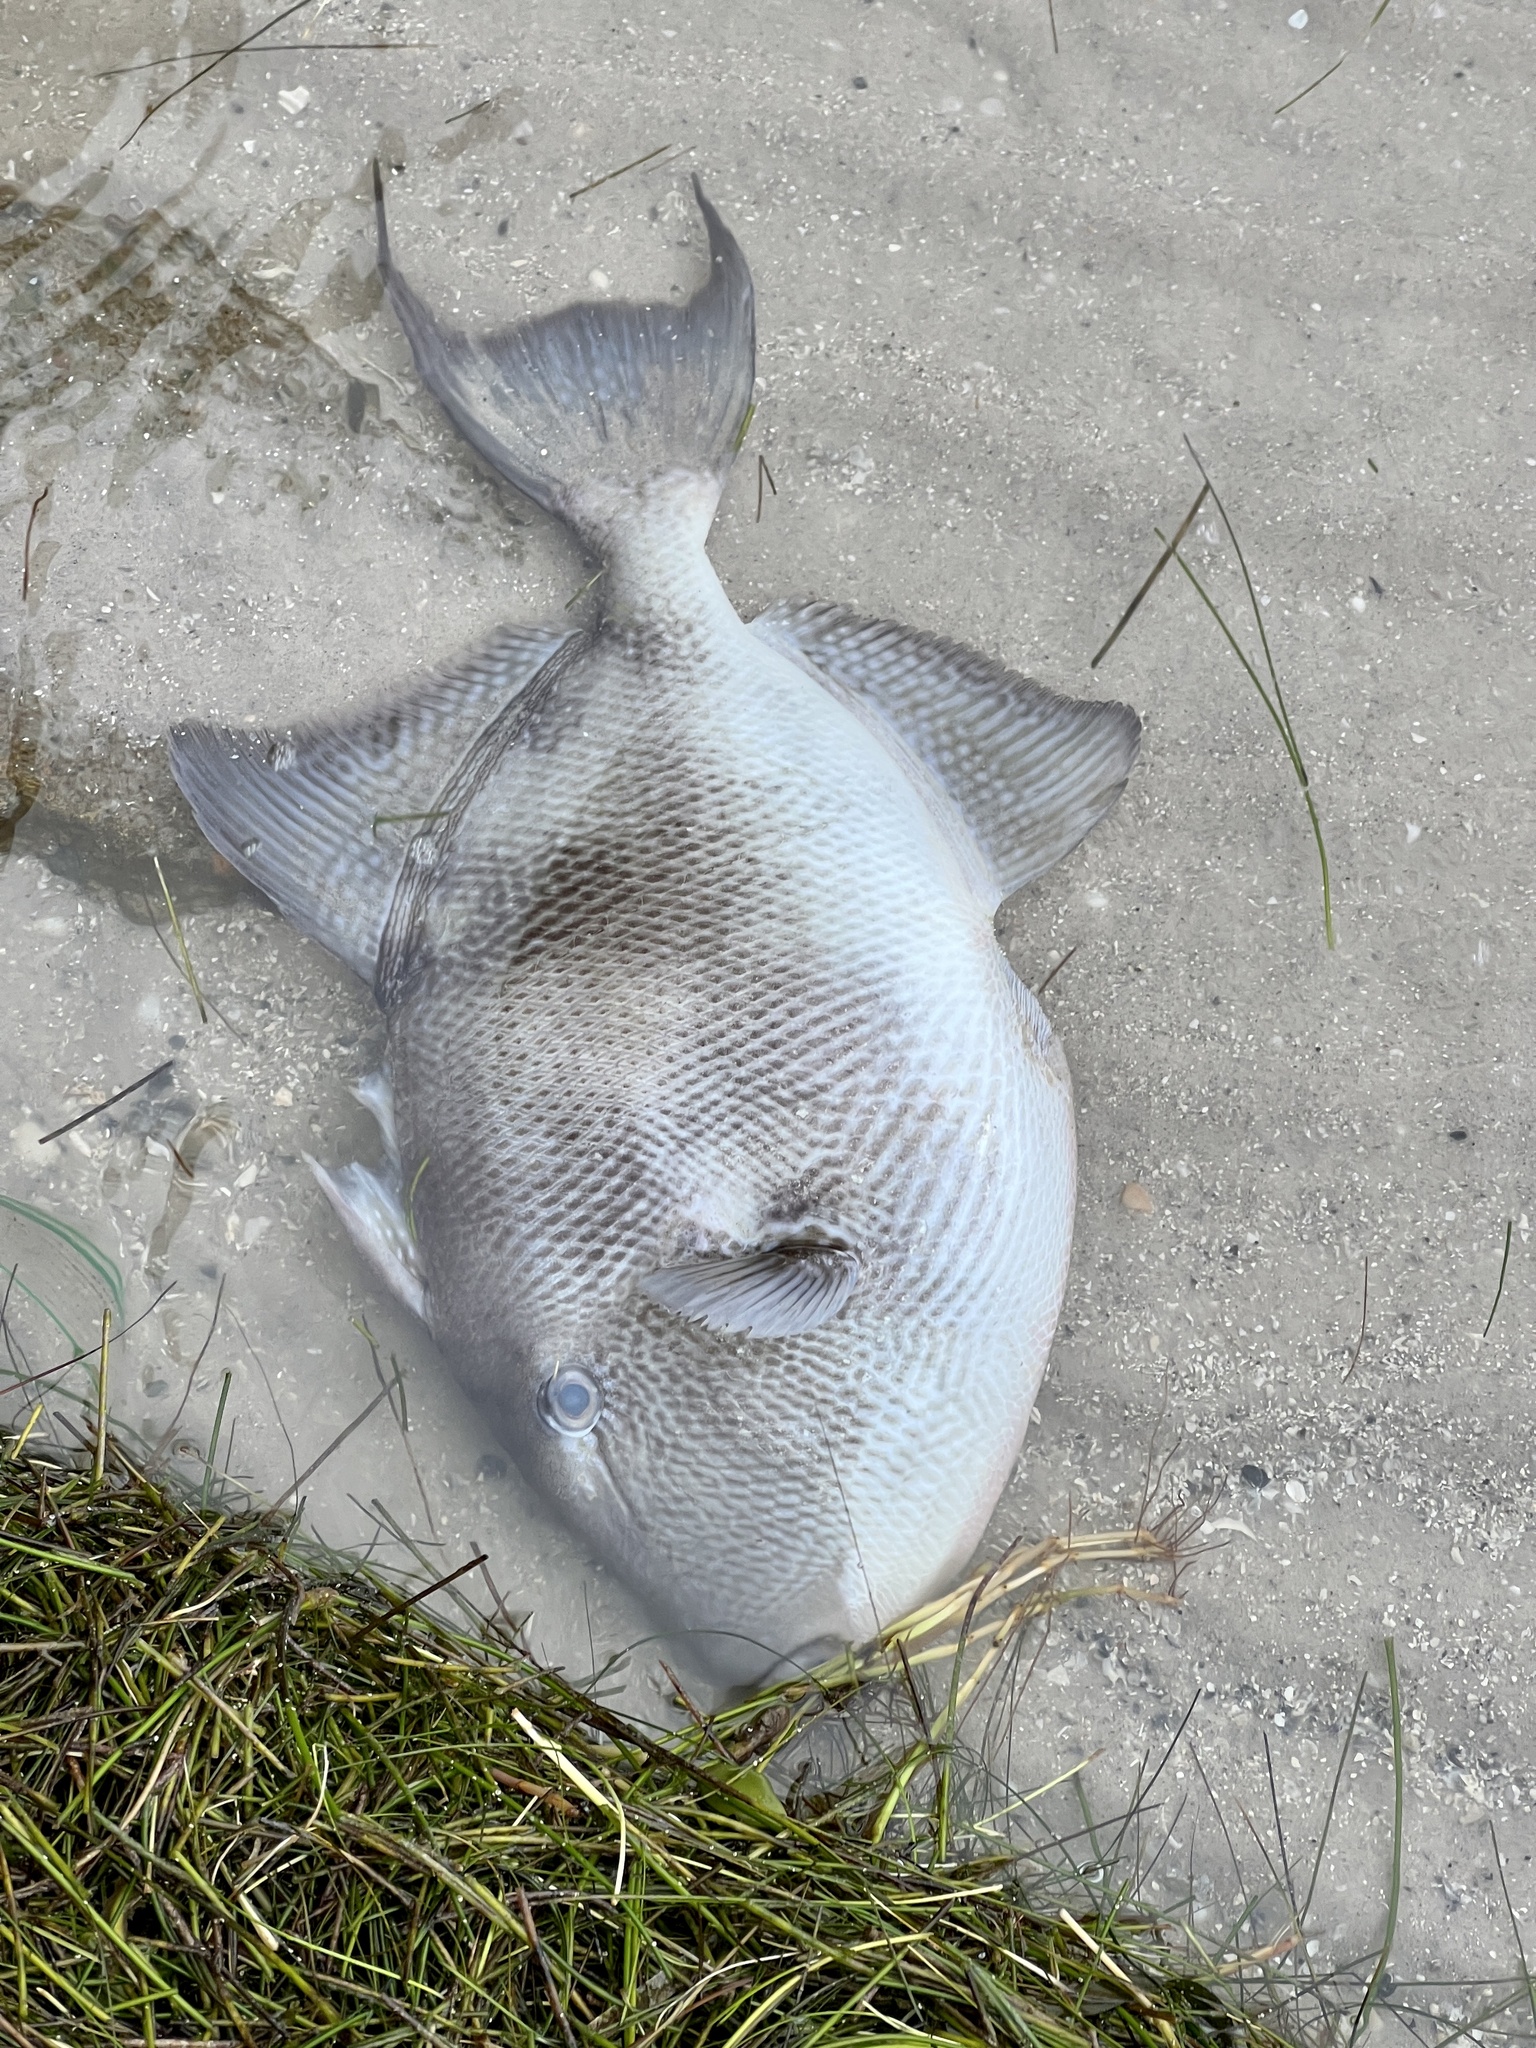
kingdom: Animalia
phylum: Chordata
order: Tetraodontiformes
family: Balistidae
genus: Balistes
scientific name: Balistes capriscus
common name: Grey triggerfish
